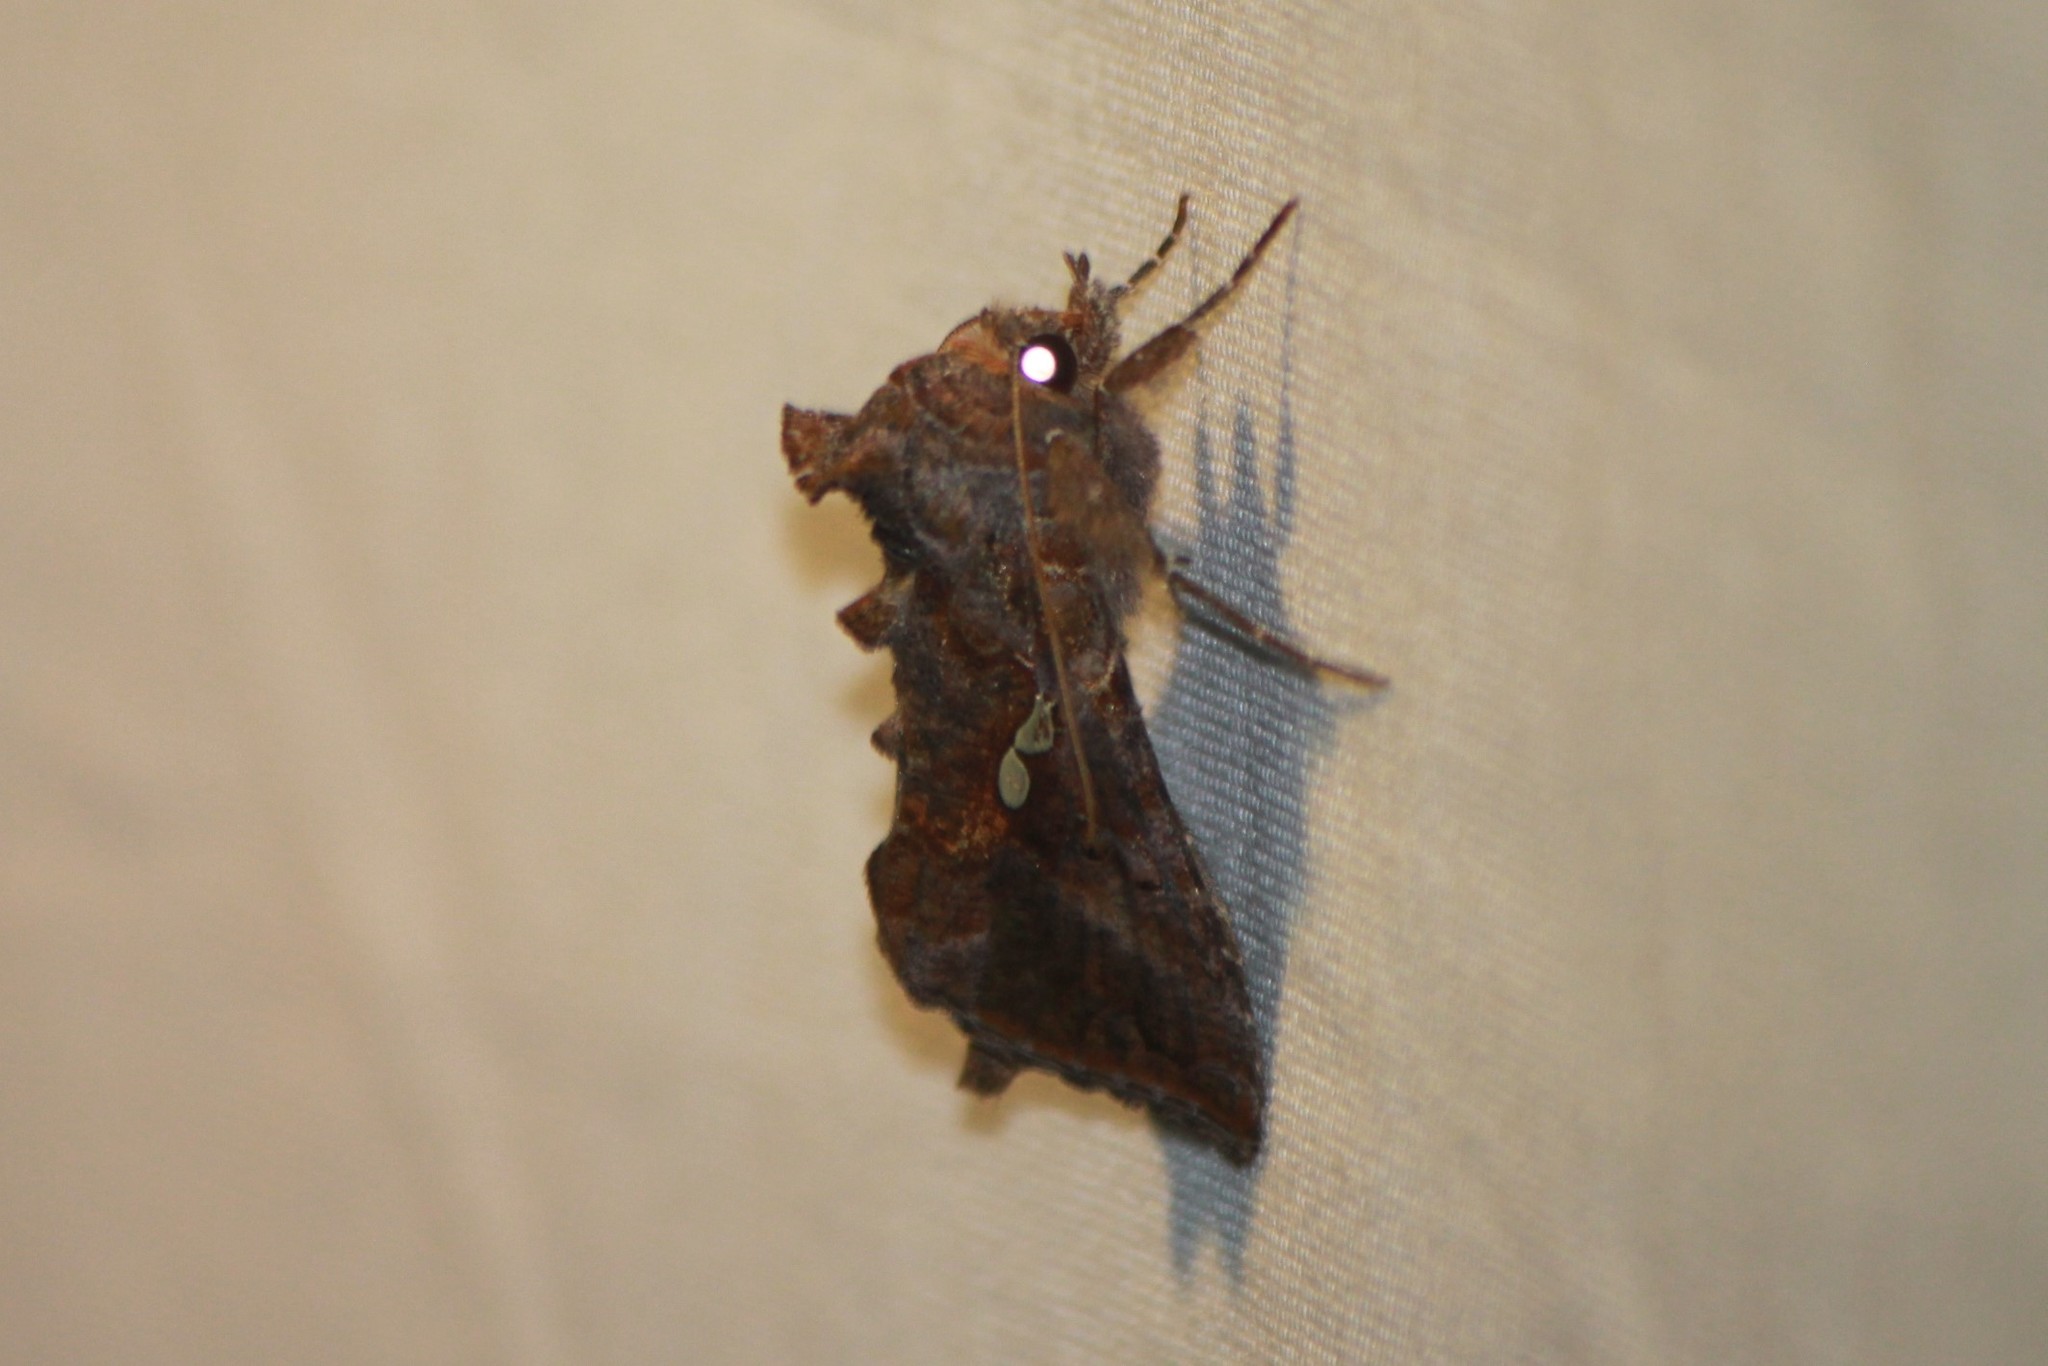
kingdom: Animalia
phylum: Arthropoda
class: Insecta
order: Lepidoptera
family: Noctuidae
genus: Autographa
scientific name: Autographa precationis
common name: Common looper moth
